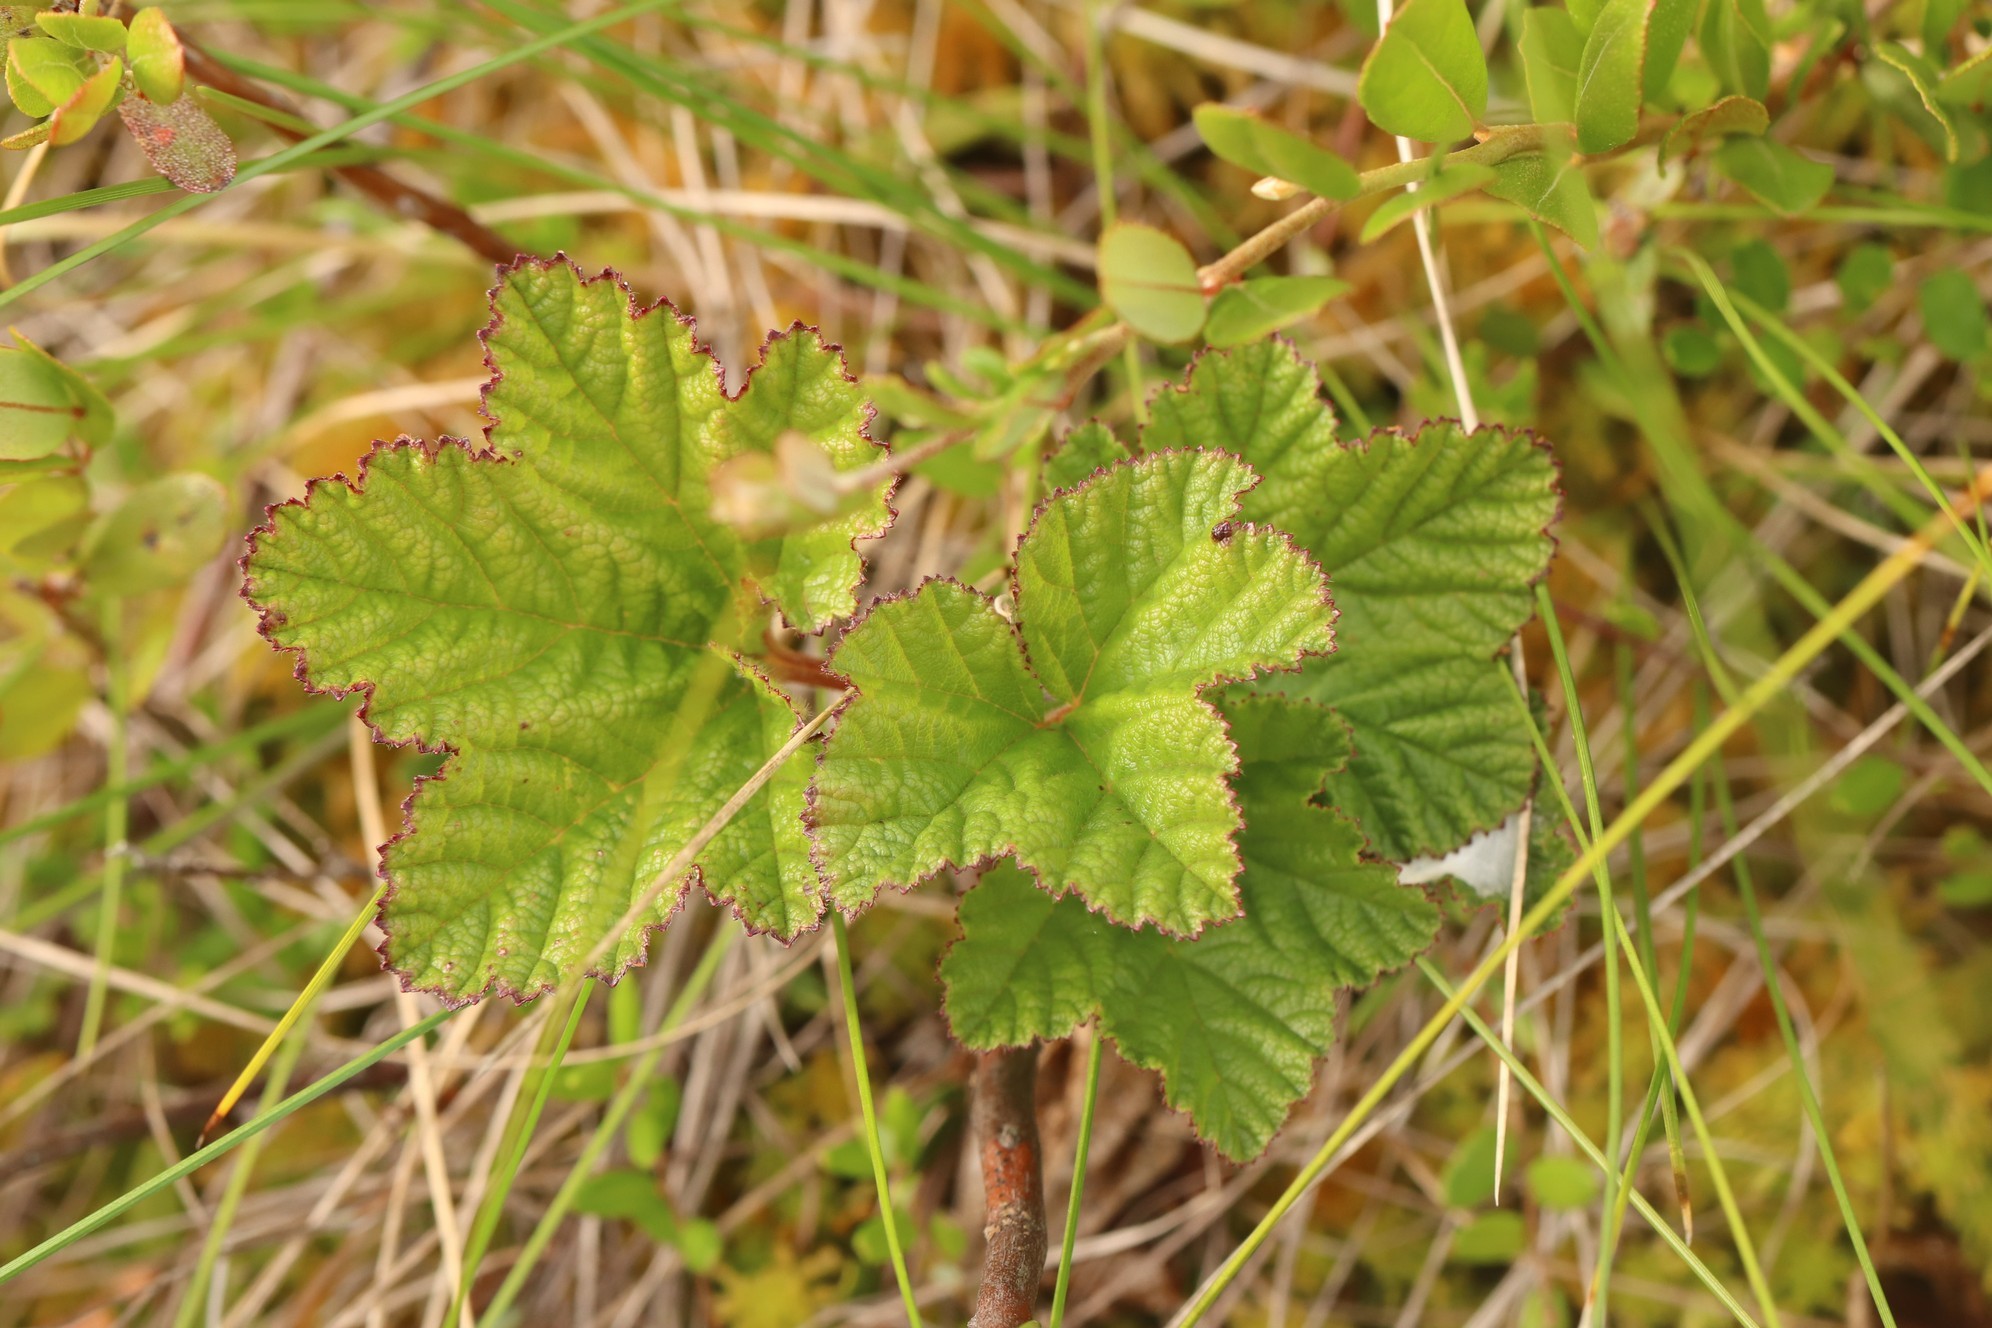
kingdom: Plantae
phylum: Tracheophyta
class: Magnoliopsida
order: Rosales
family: Rosaceae
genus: Rubus
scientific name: Rubus chamaemorus
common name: Cloudberry
